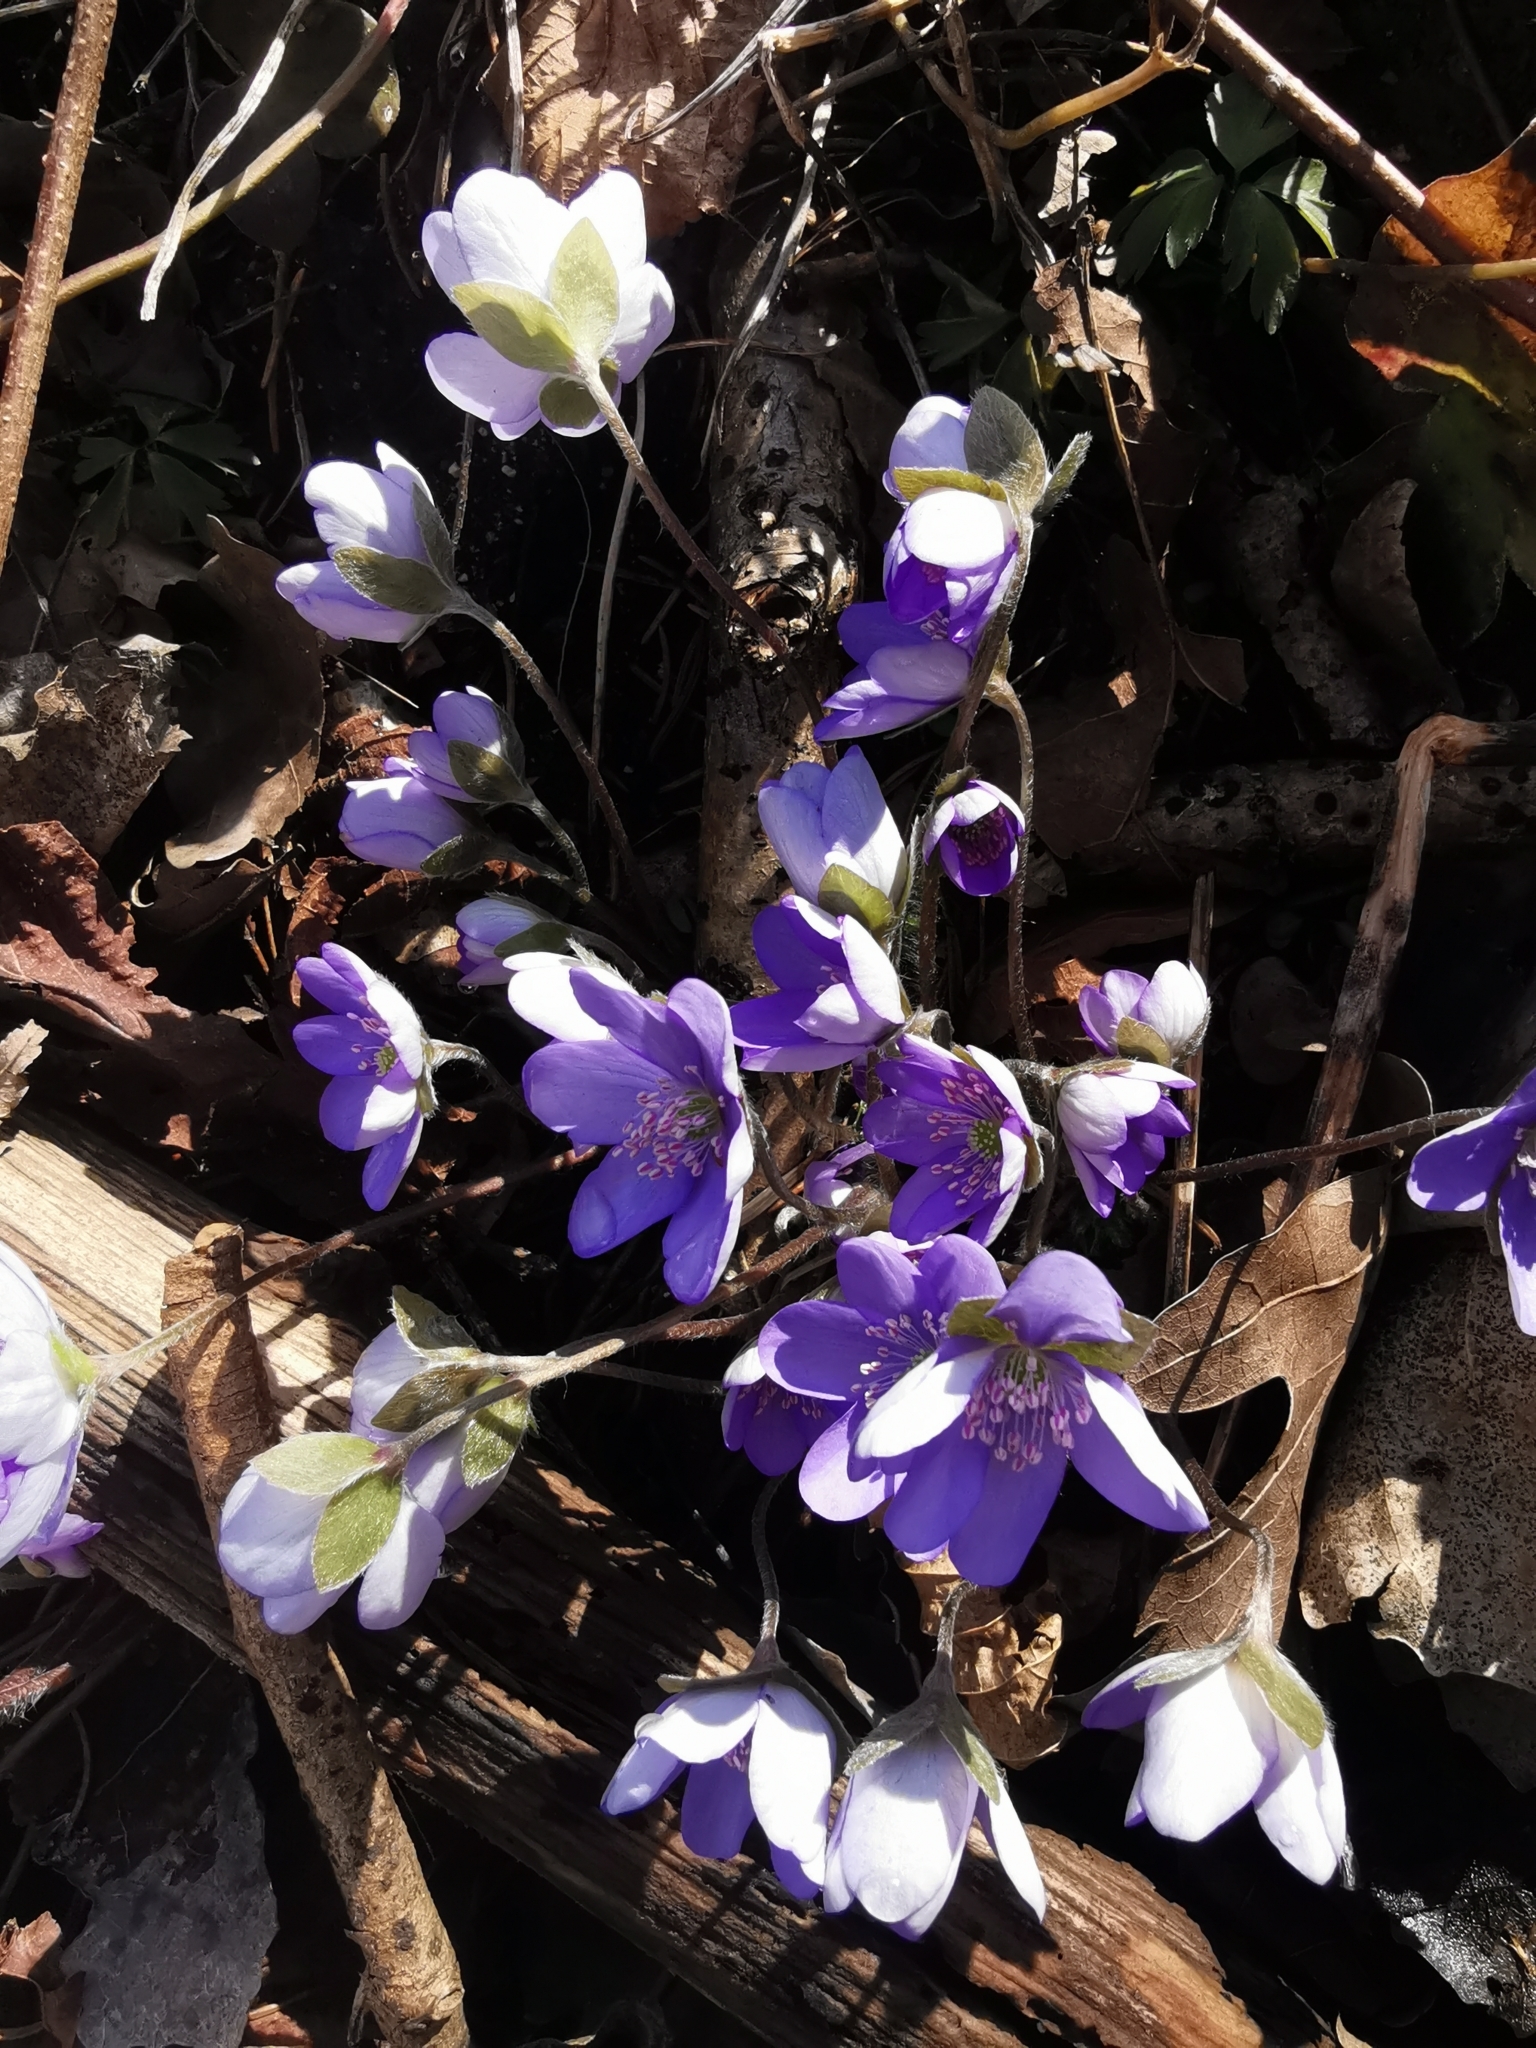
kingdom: Plantae
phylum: Tracheophyta
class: Magnoliopsida
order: Ranunculales
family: Ranunculaceae
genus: Hepatica
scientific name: Hepatica nobilis
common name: Liverleaf
